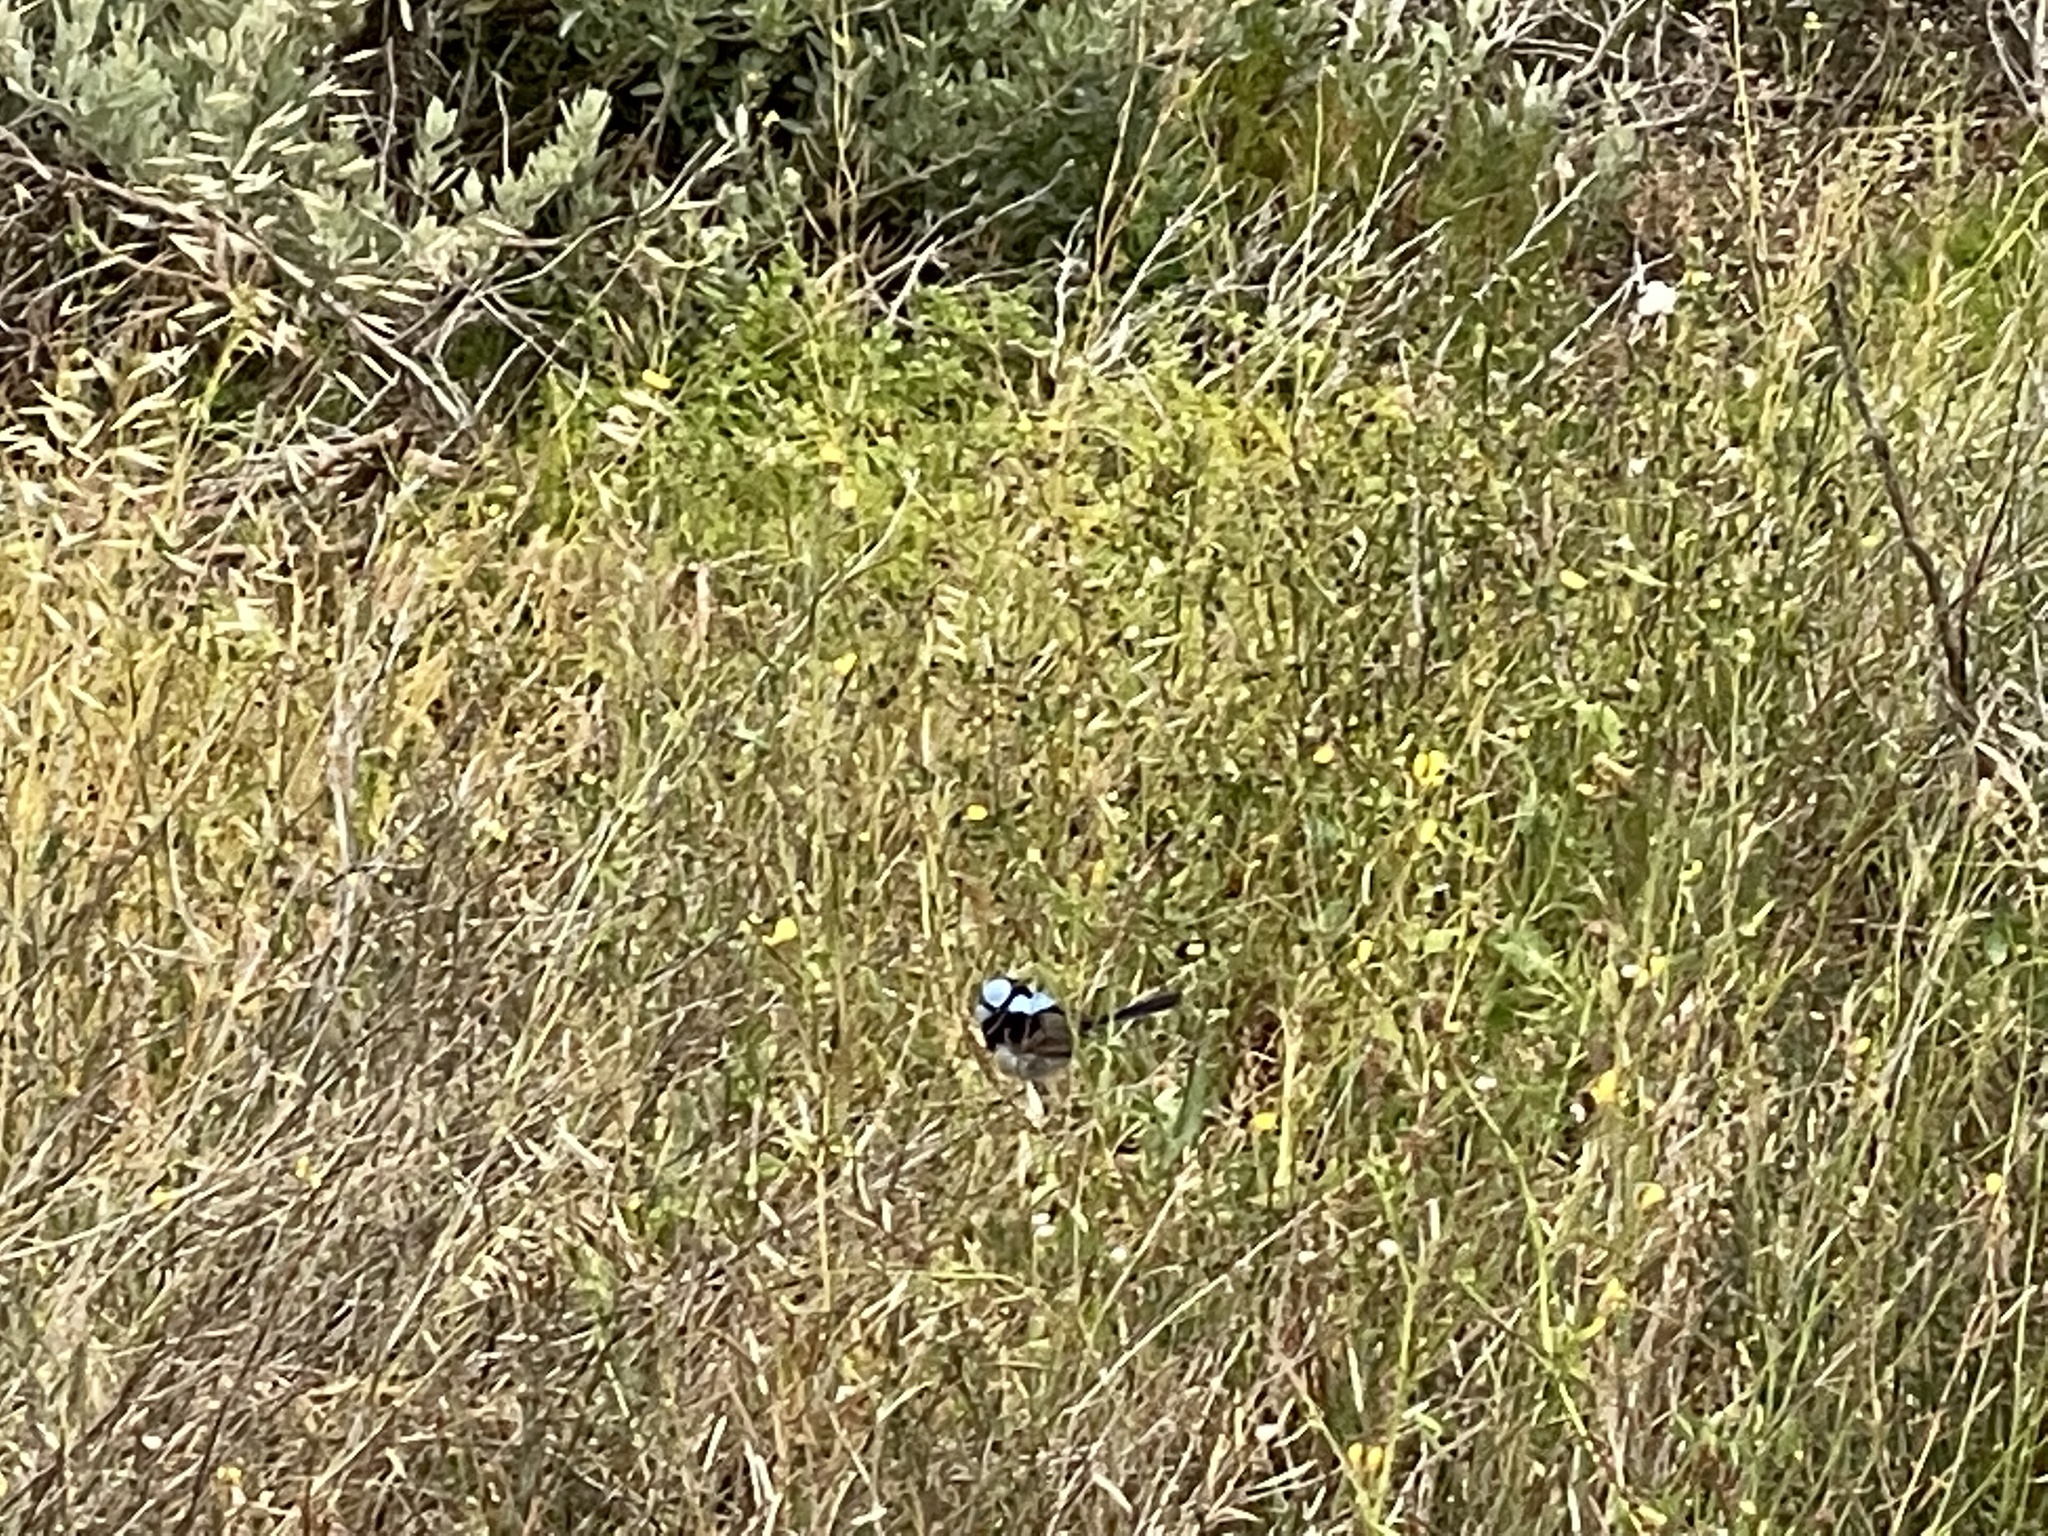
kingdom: Animalia
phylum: Chordata
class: Aves
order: Passeriformes
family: Maluridae
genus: Malurus
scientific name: Malurus cyaneus
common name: Superb fairywren
